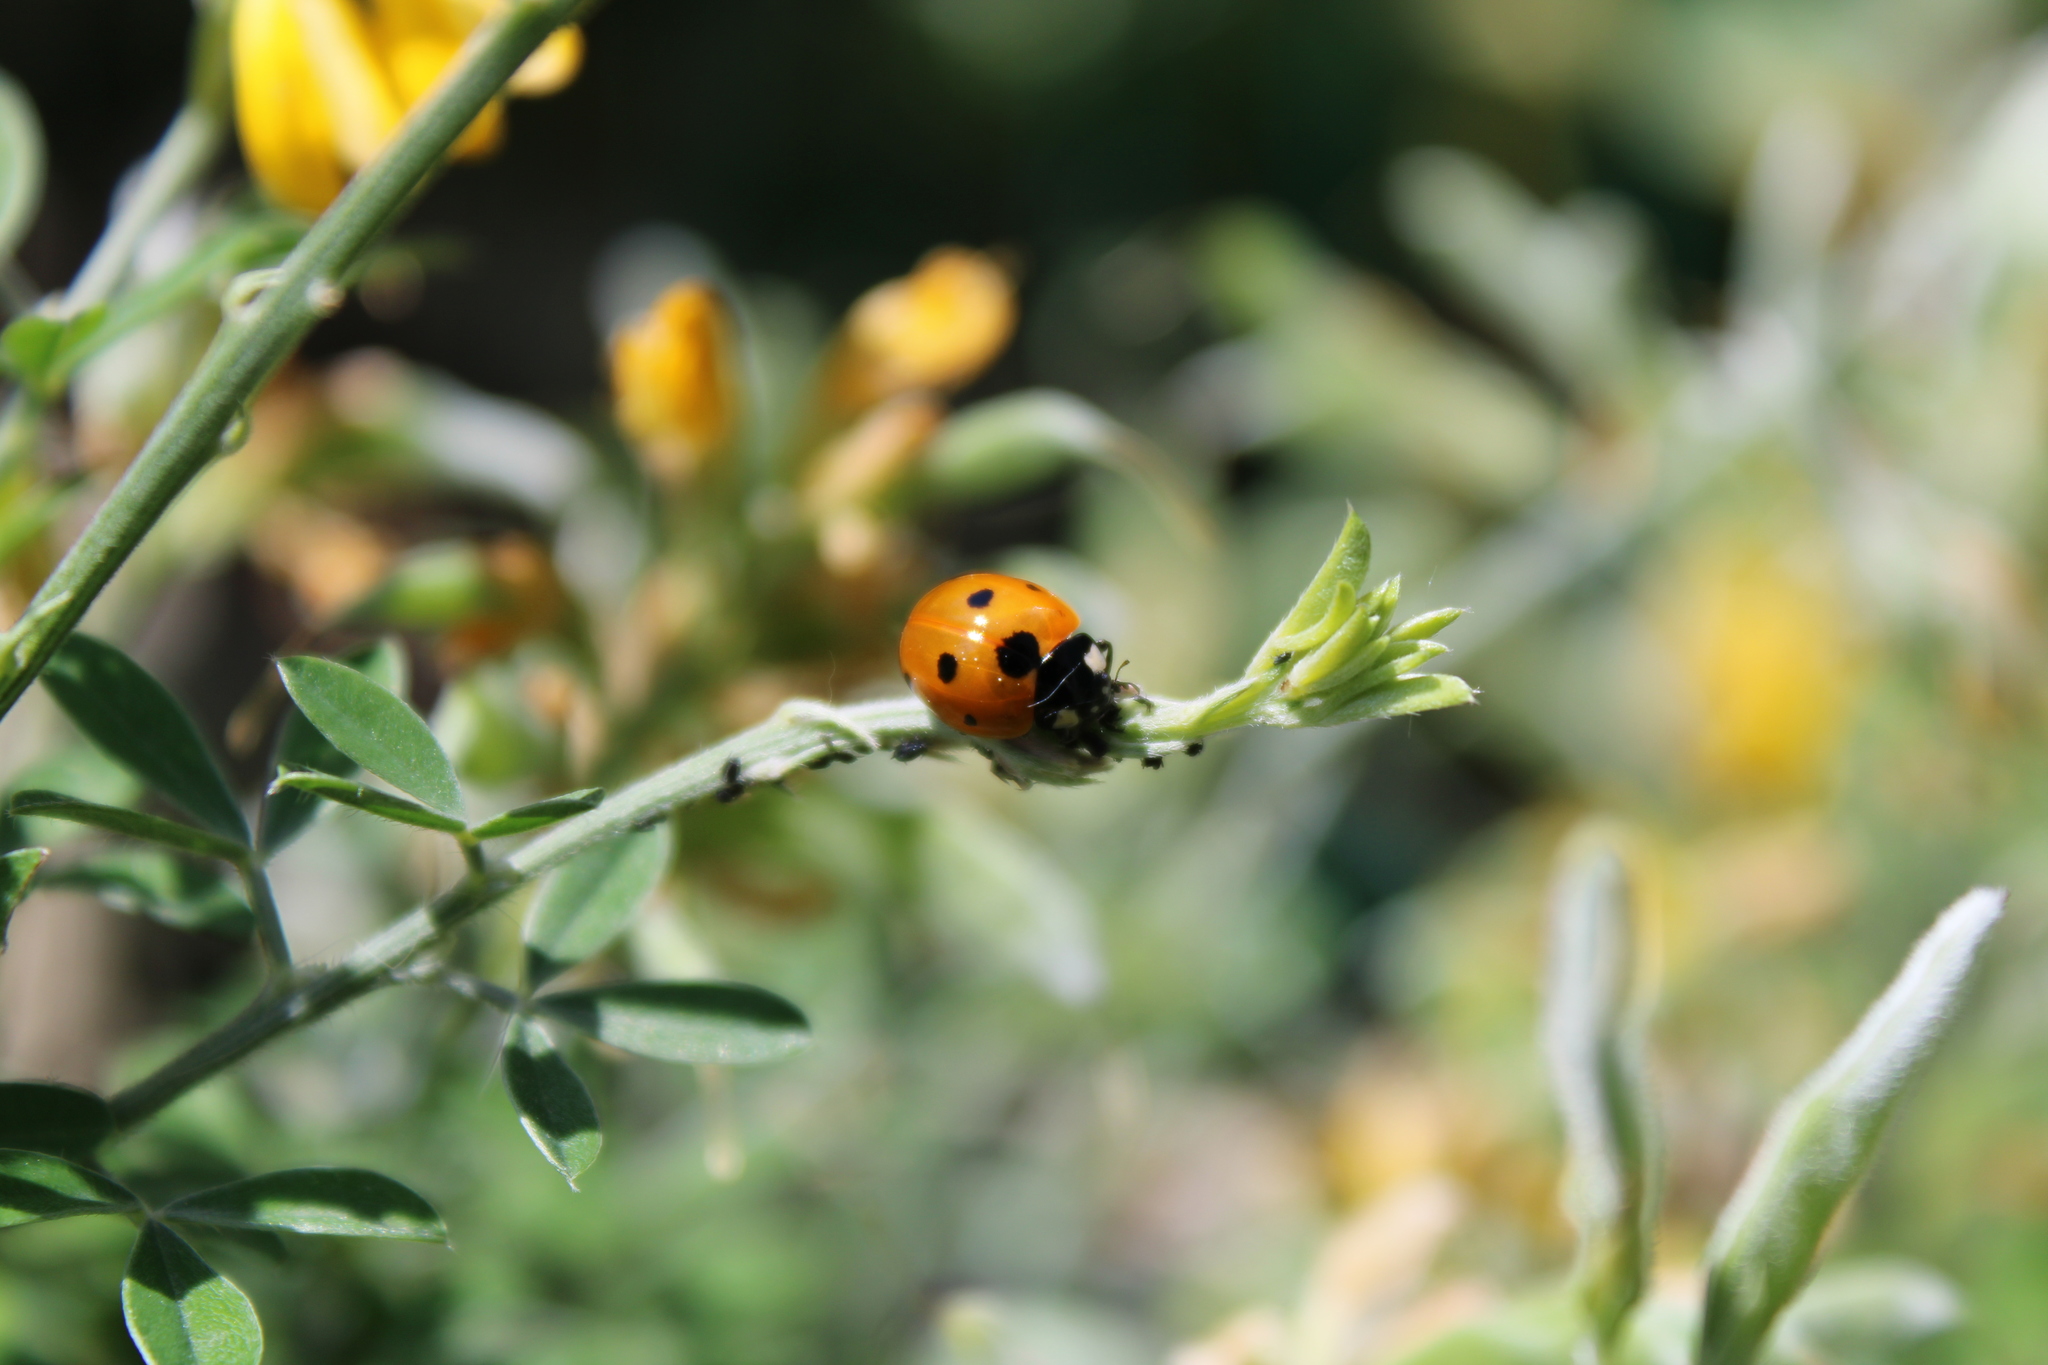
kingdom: Animalia
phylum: Arthropoda
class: Insecta
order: Coleoptera
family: Coccinellidae
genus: Coccinella
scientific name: Coccinella septempunctata
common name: Sevenspotted lady beetle
